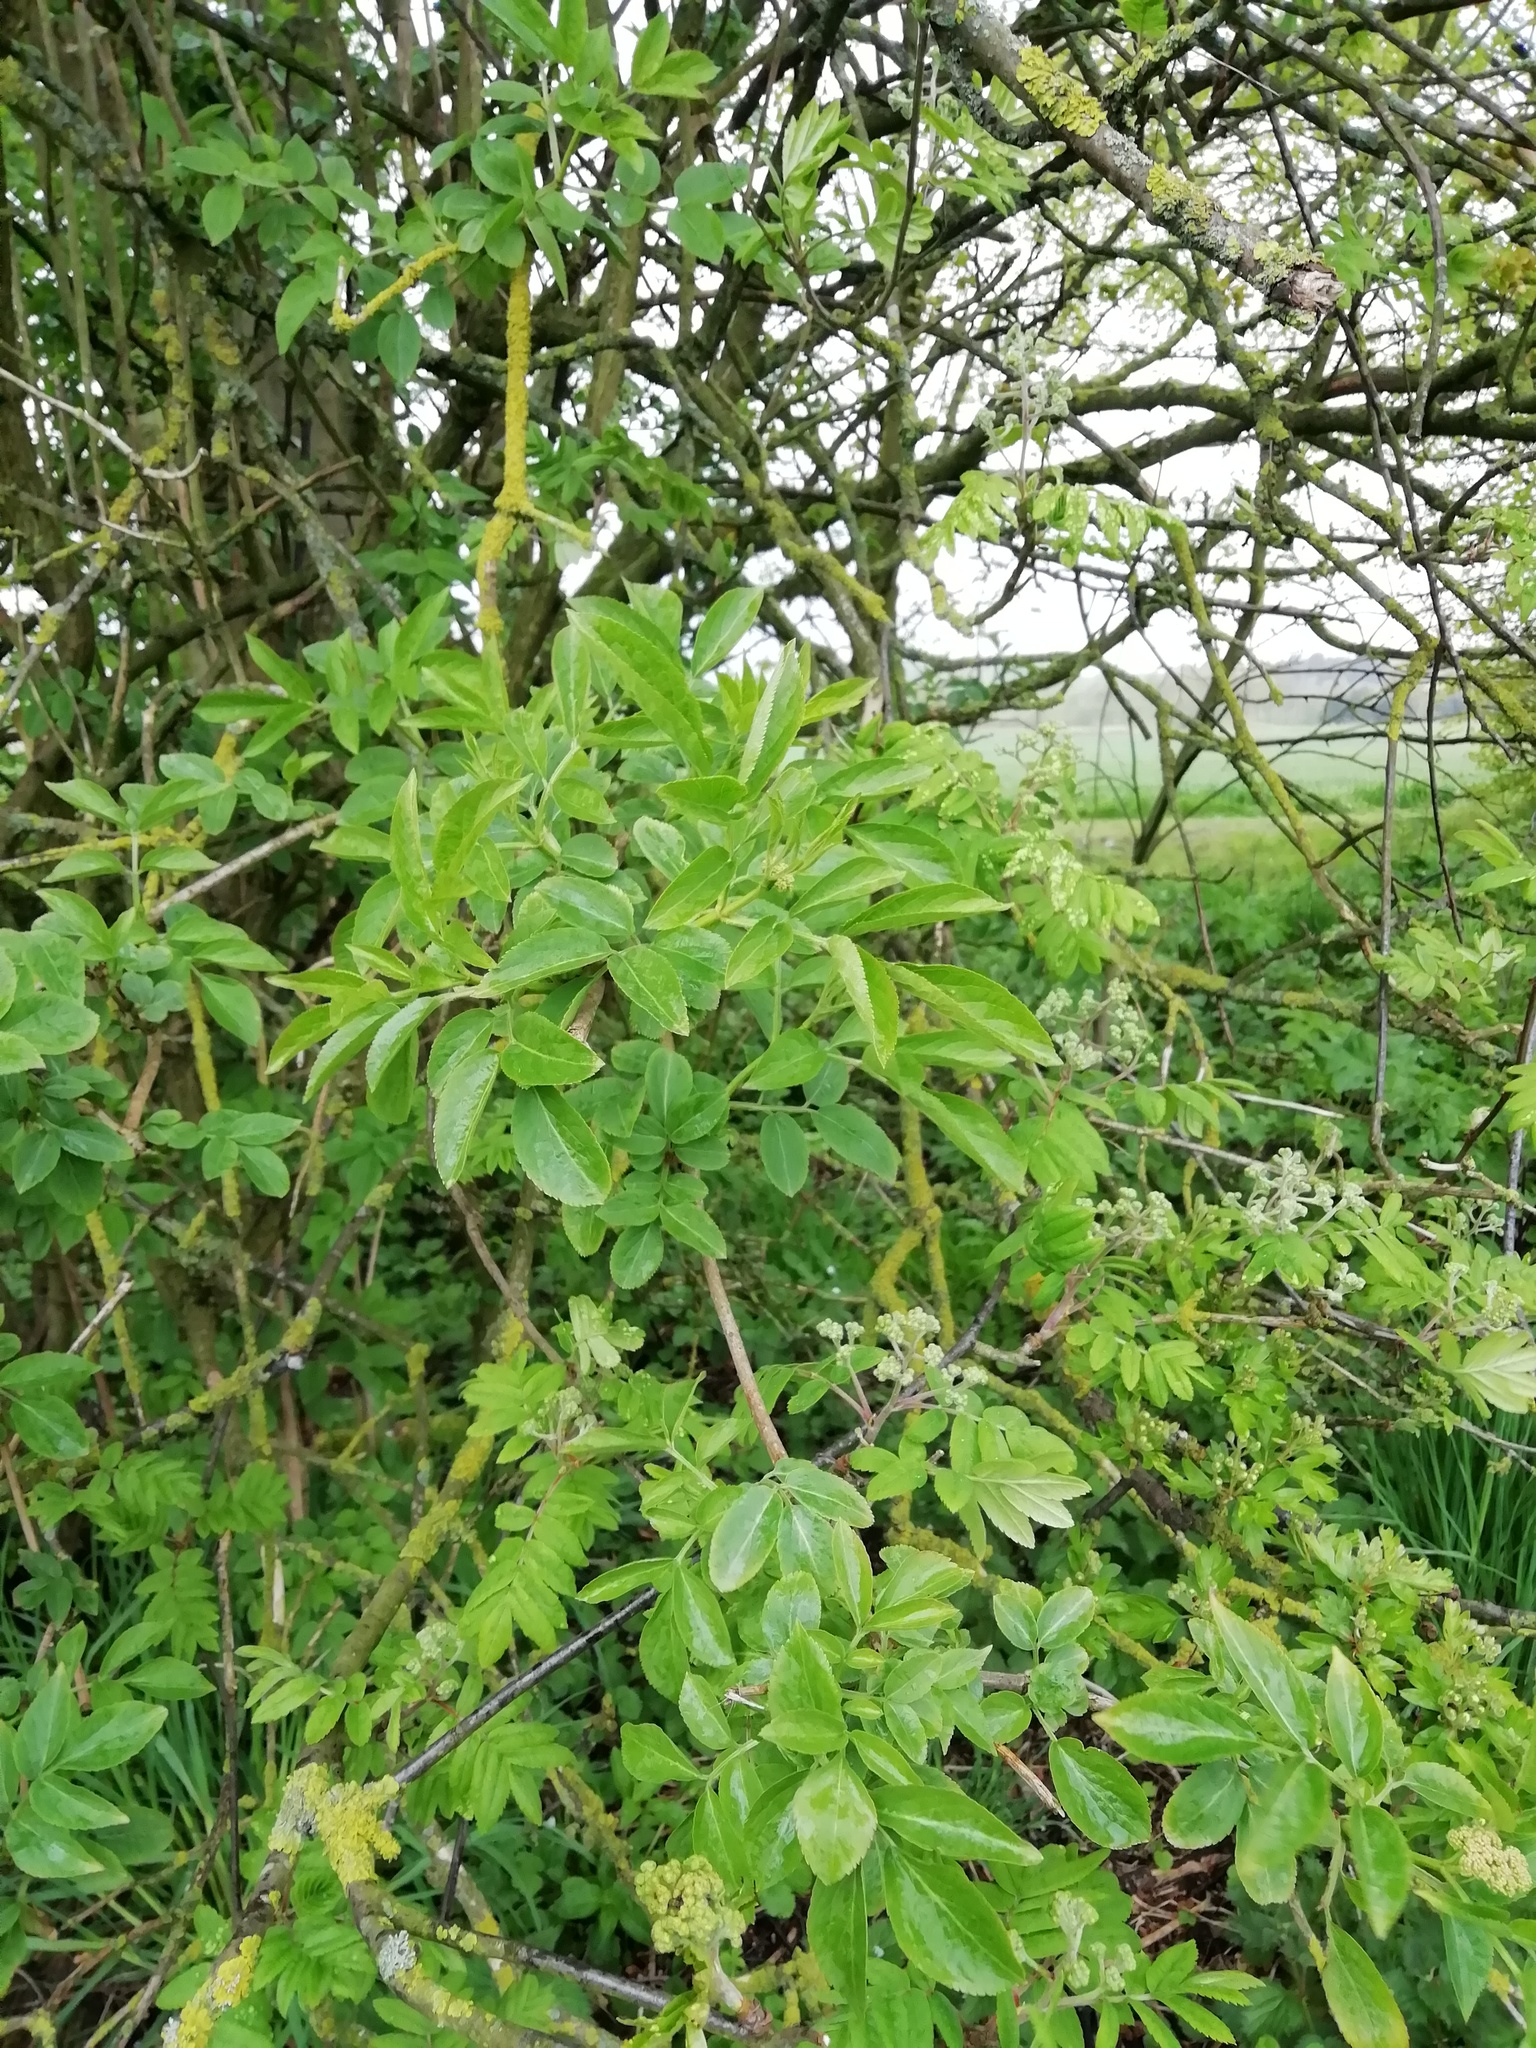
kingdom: Plantae
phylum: Tracheophyta
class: Magnoliopsida
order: Dipsacales
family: Viburnaceae
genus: Sambucus
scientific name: Sambucus nigra
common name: Elder
